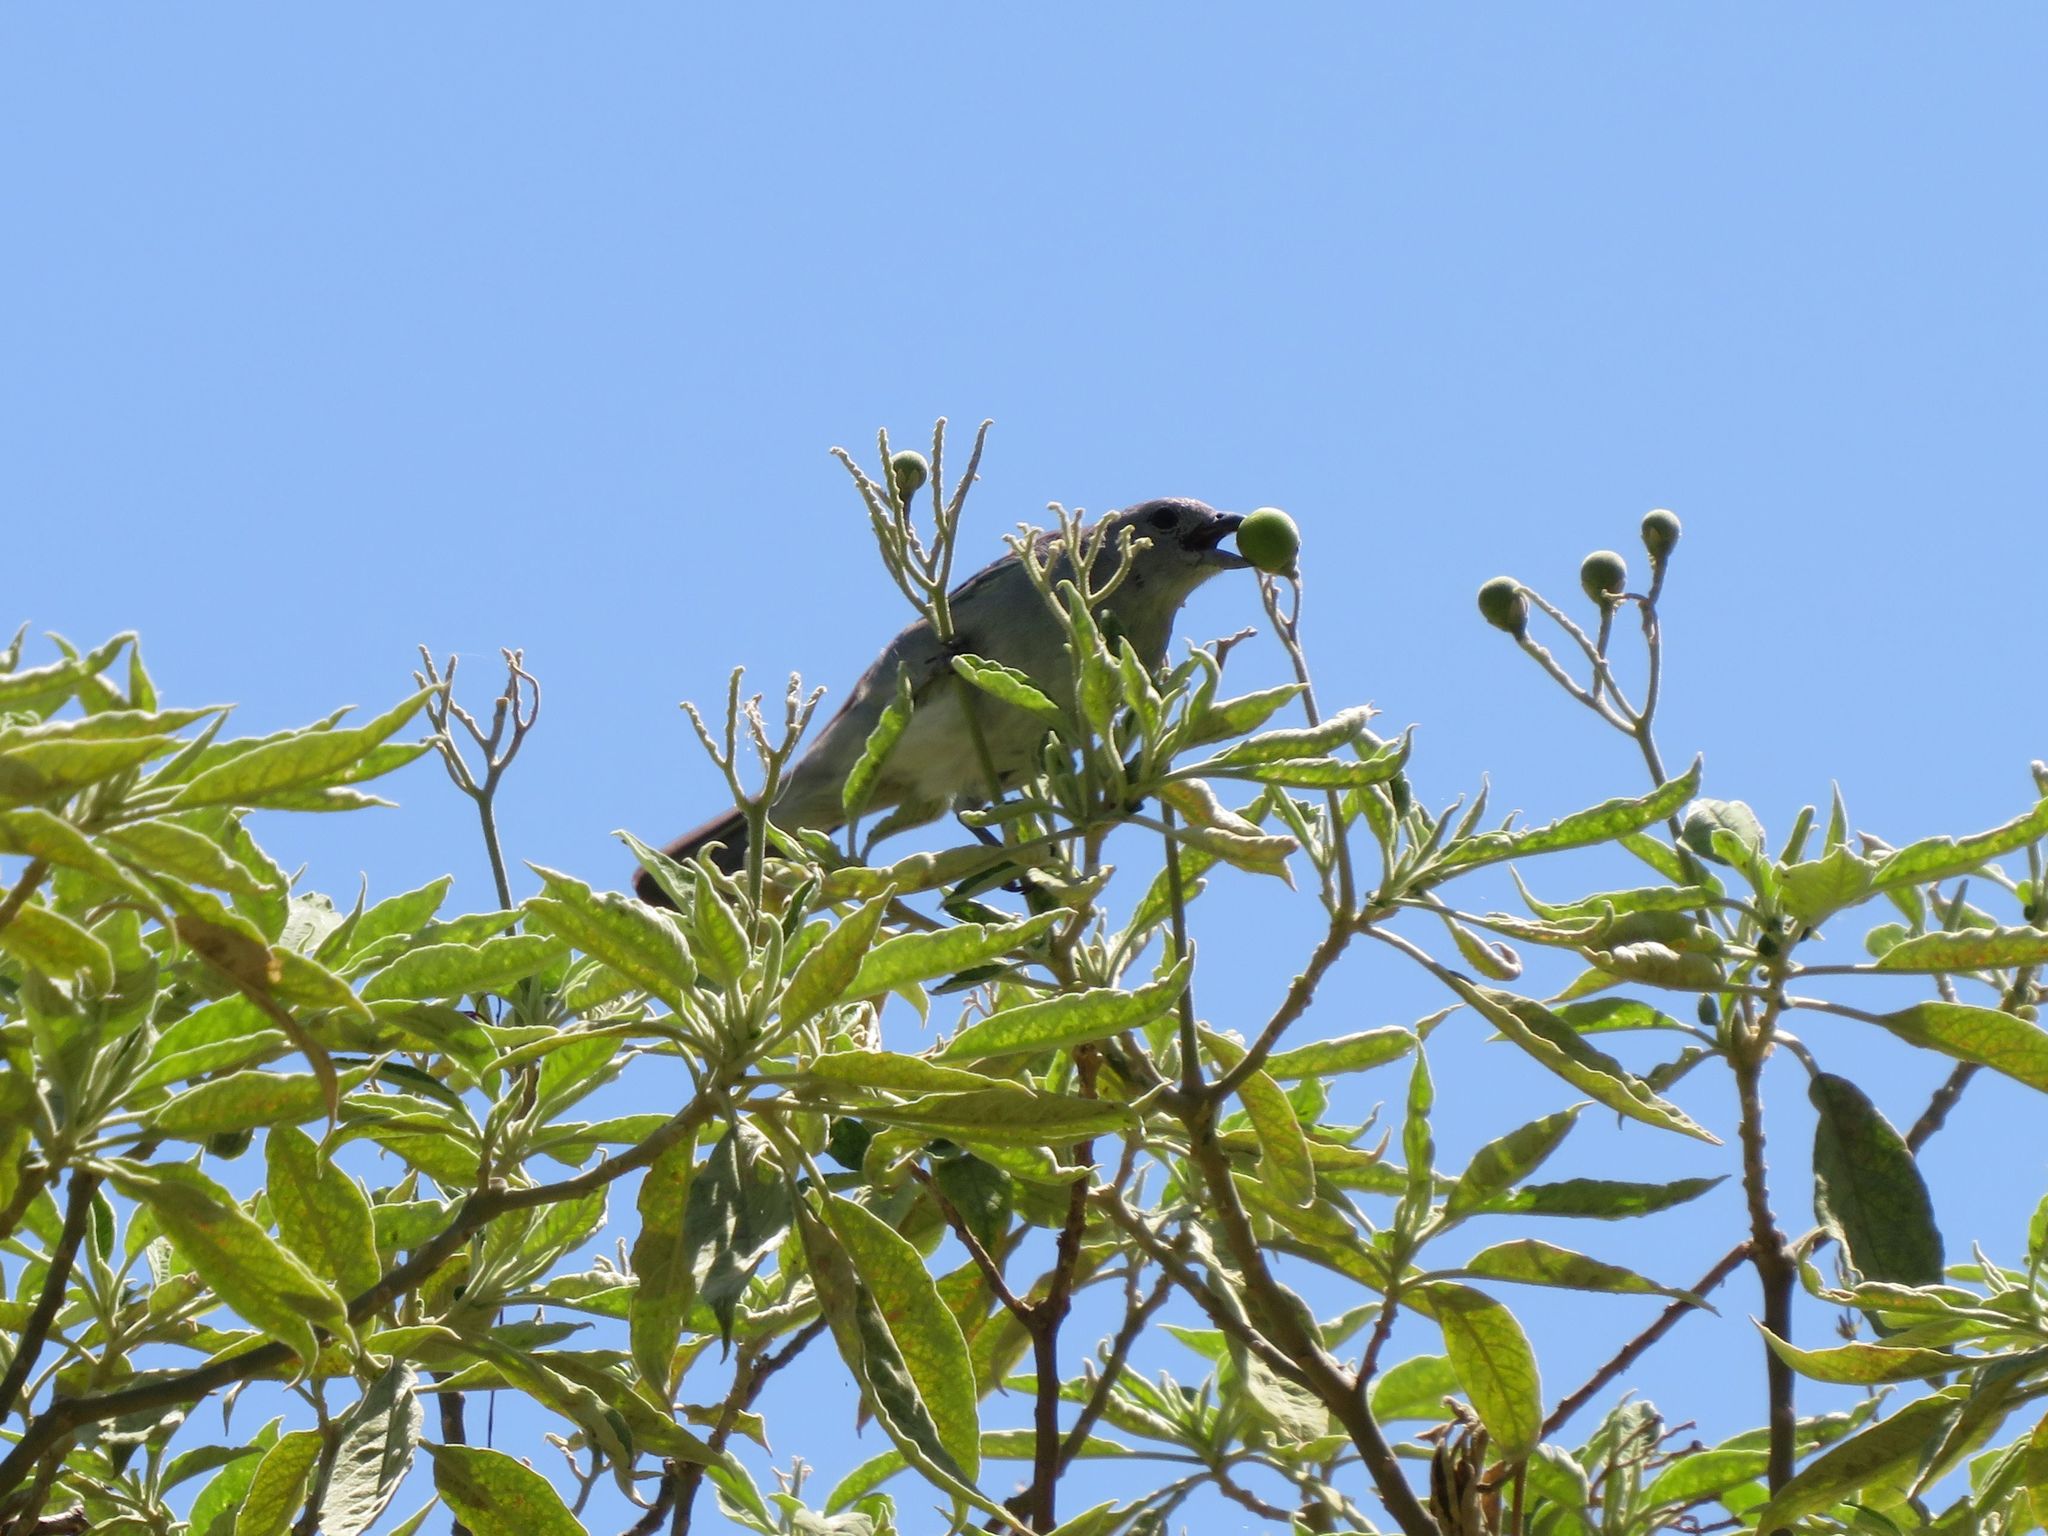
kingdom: Animalia
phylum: Chordata
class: Aves
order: Passeriformes
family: Thraupidae
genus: Thraupis
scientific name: Thraupis sayaca
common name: Sayaca tanager
